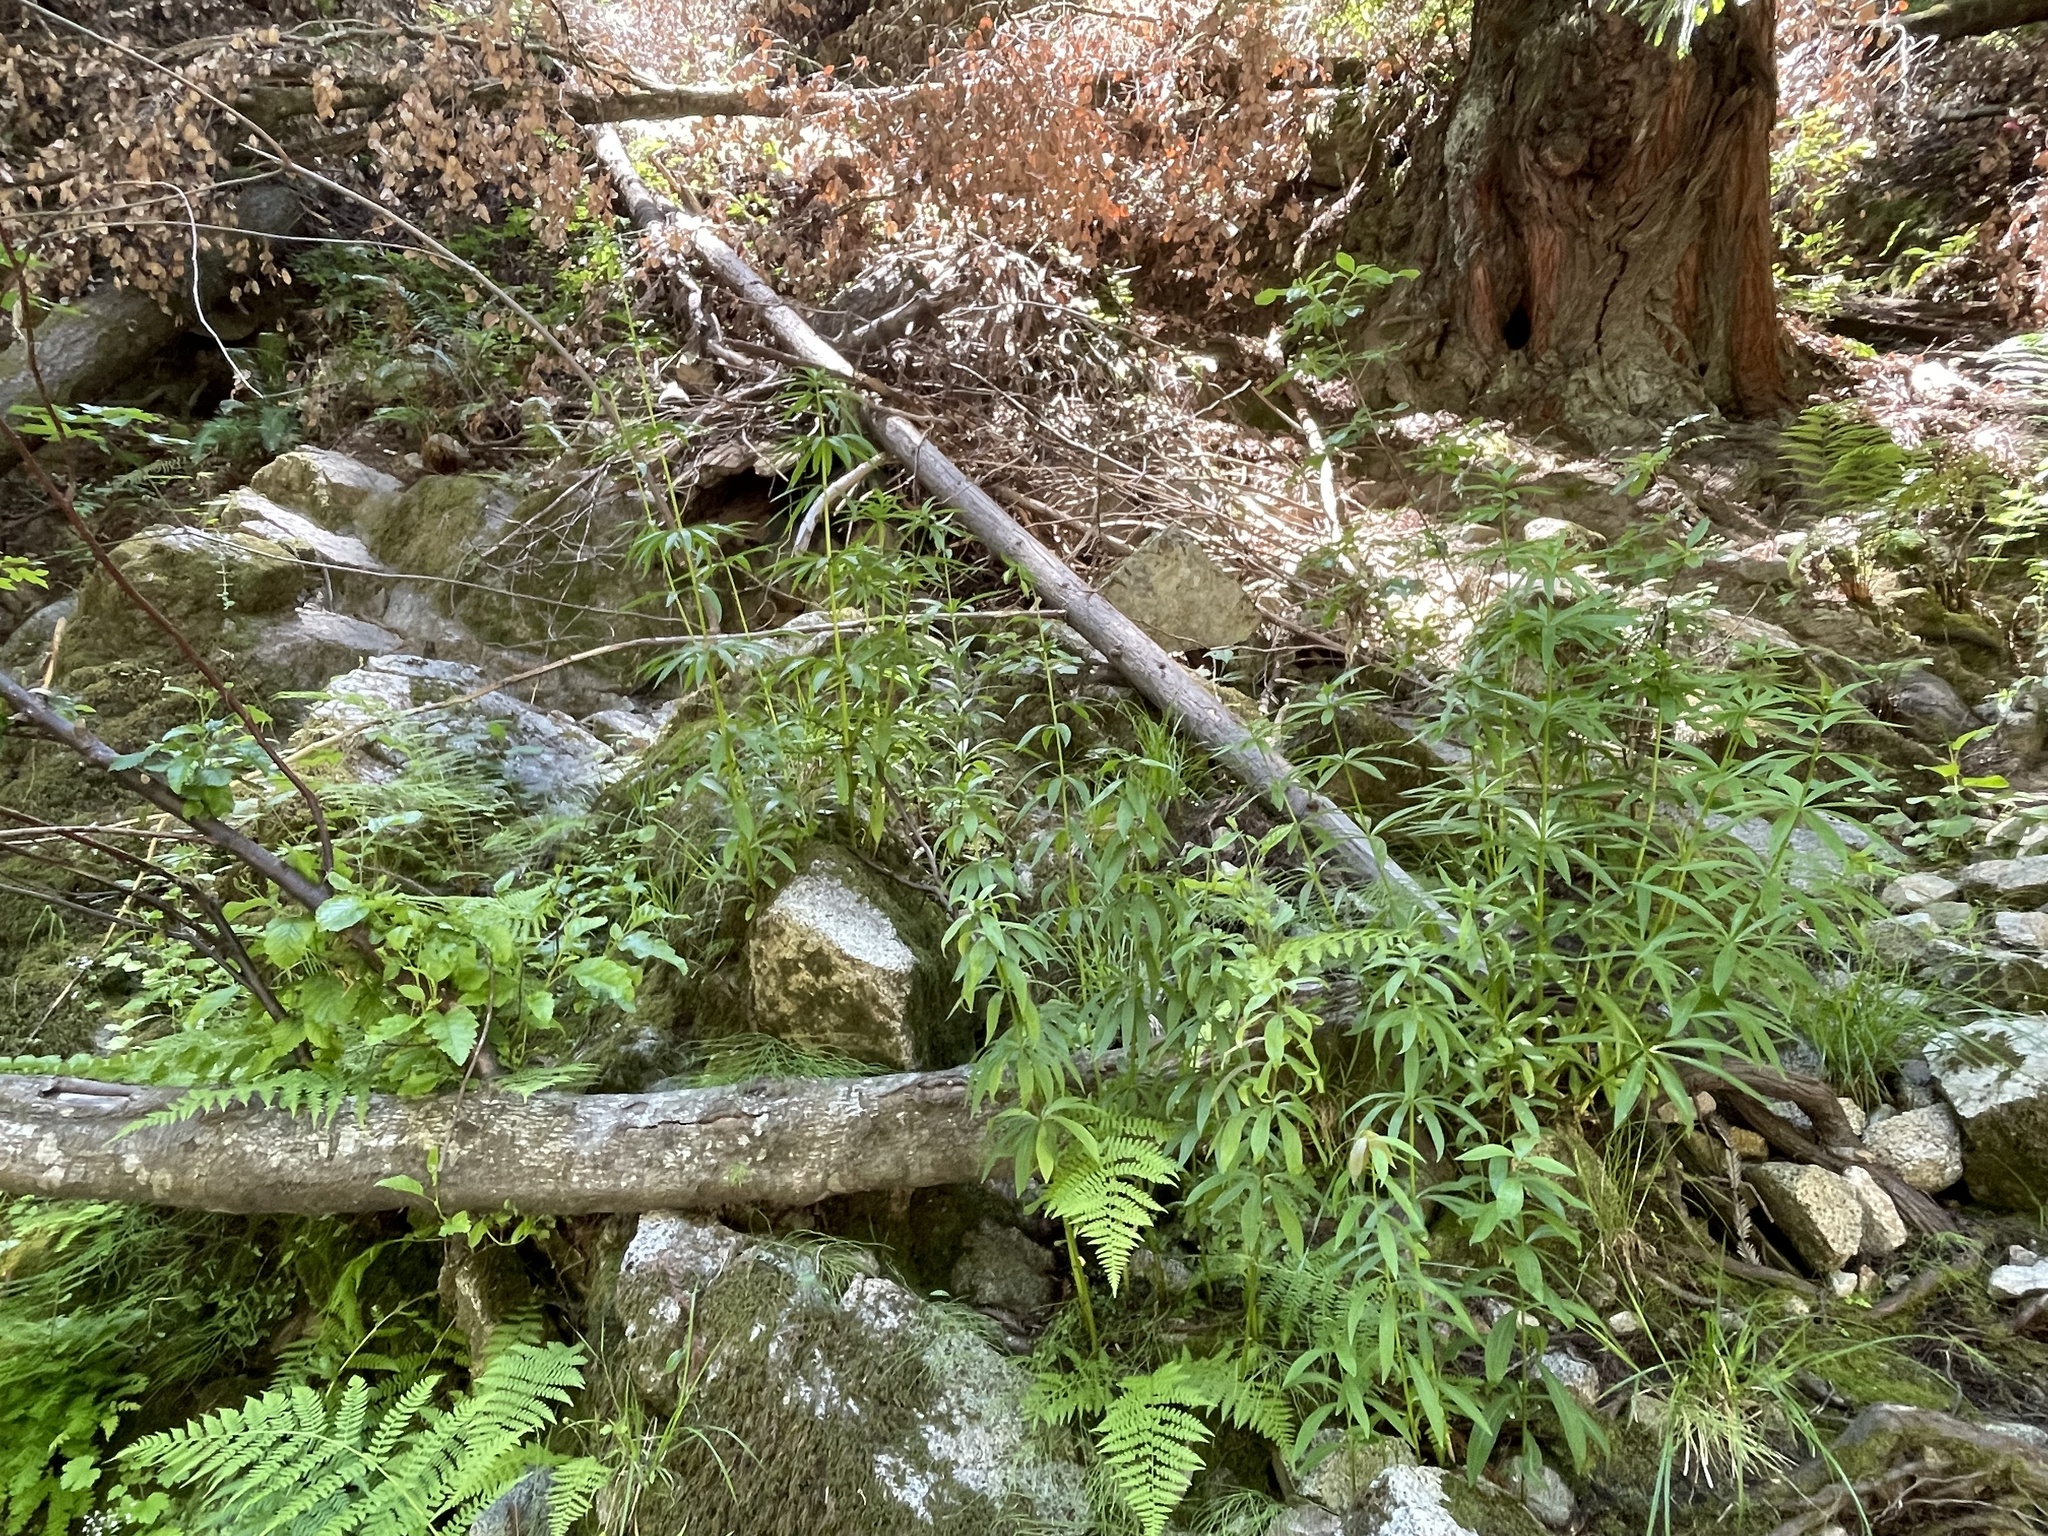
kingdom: Plantae
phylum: Tracheophyta
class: Liliopsida
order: Liliales
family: Liliaceae
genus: Lilium
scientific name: Lilium pardalinum
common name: Panther lily
